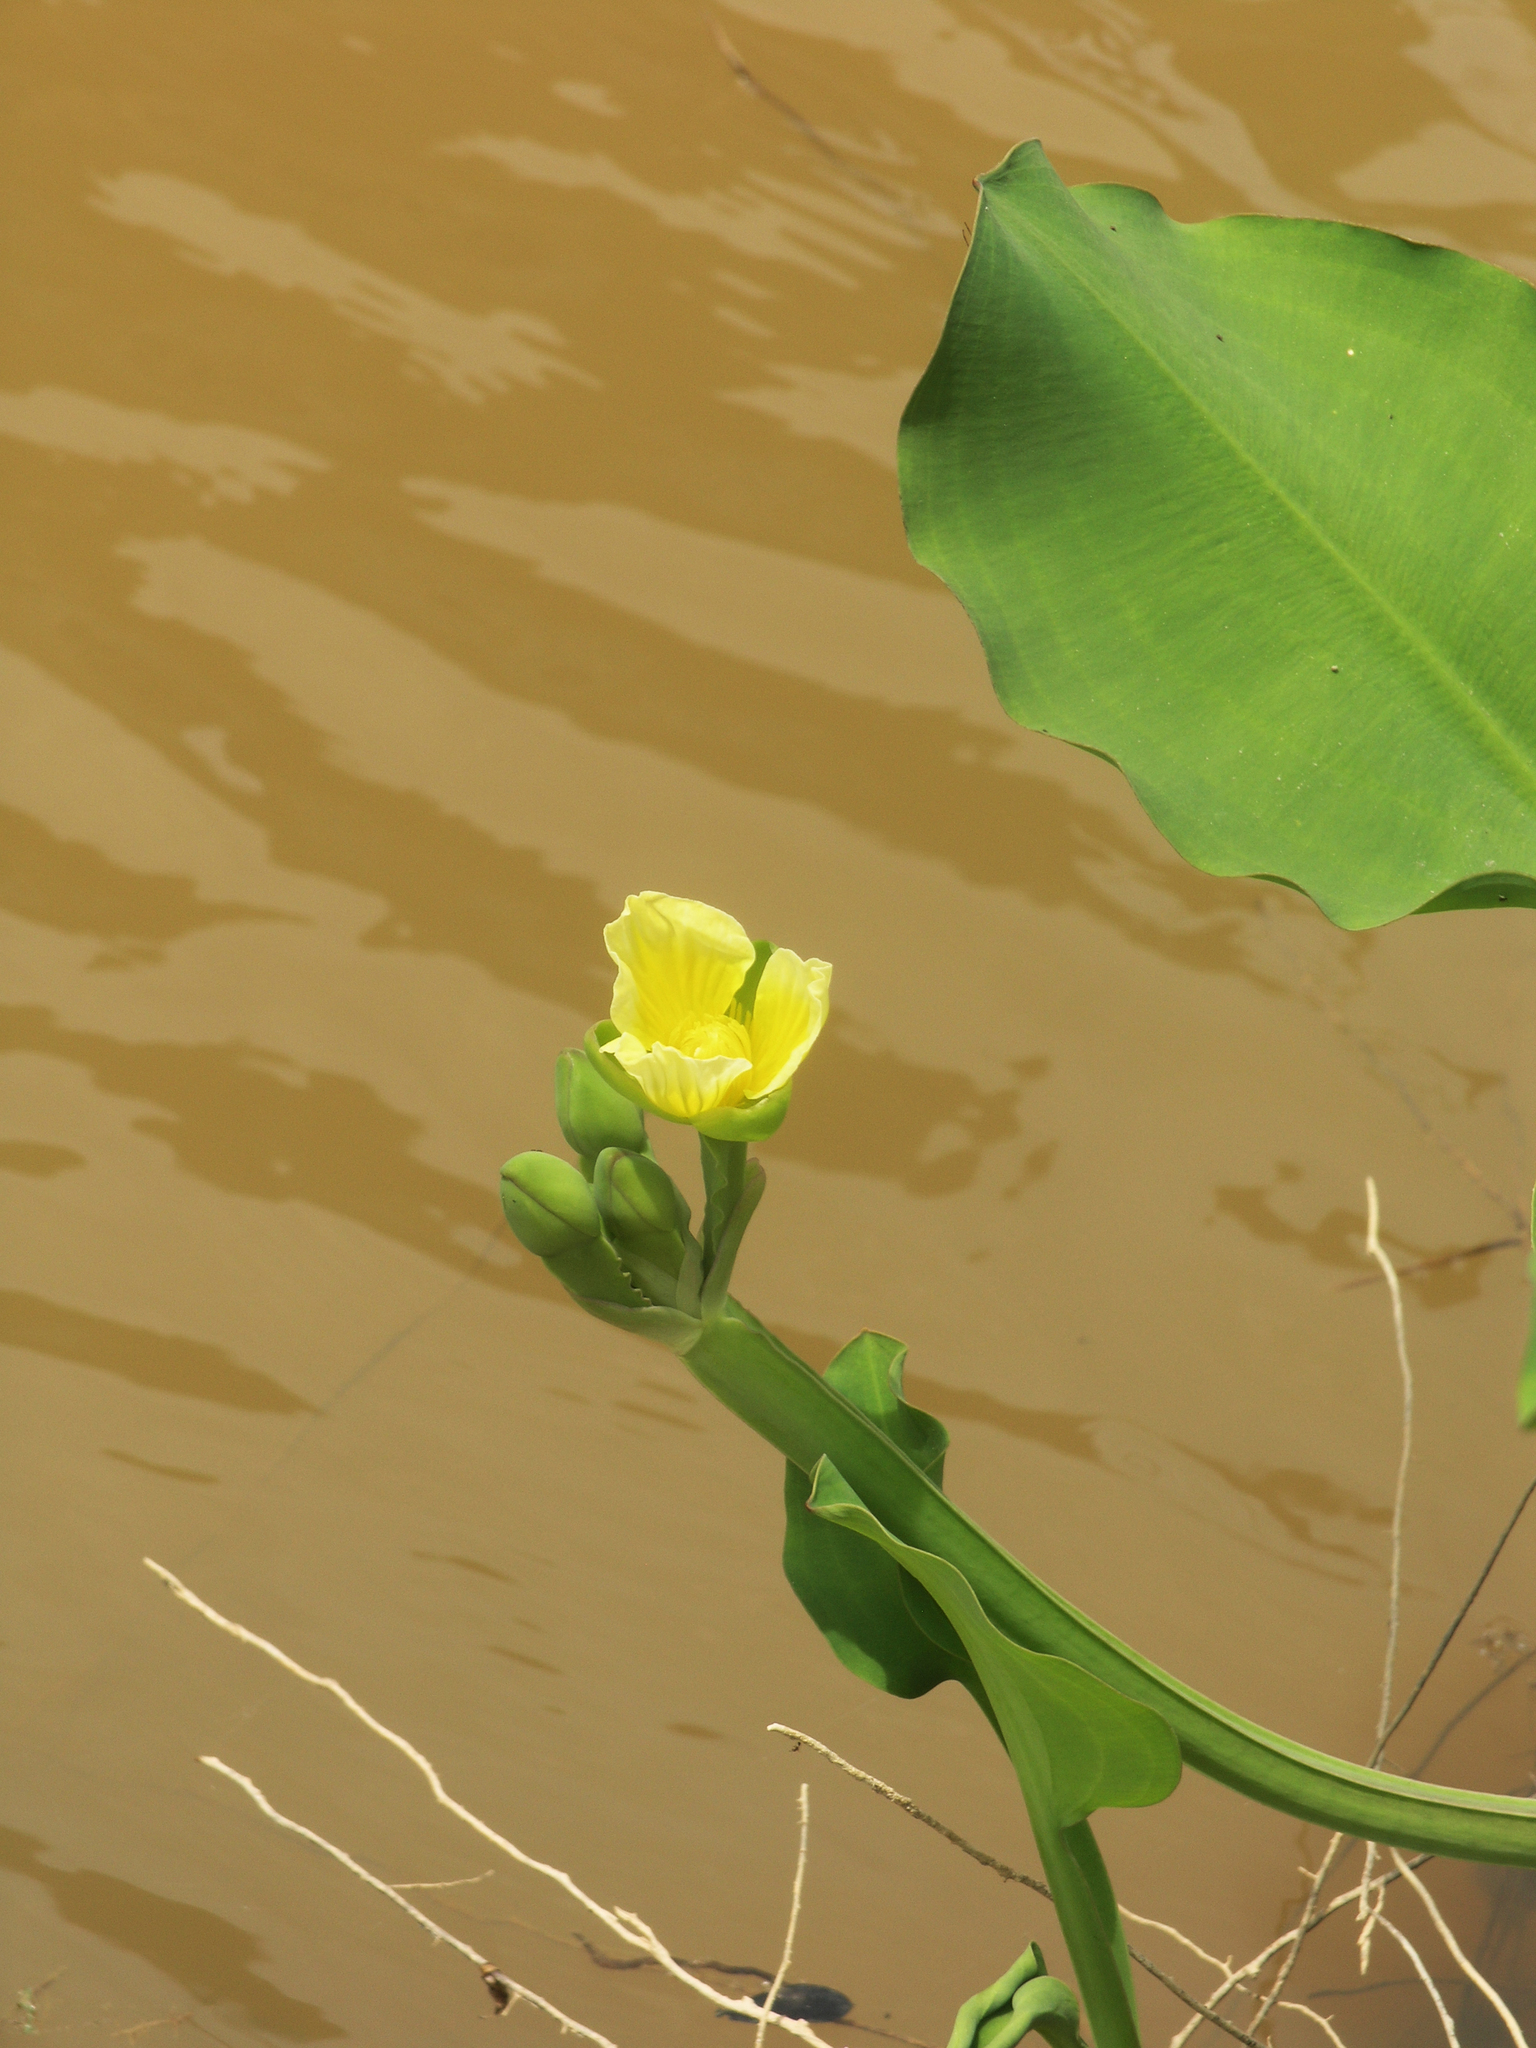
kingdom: Plantae
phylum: Tracheophyta
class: Liliopsida
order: Alismatales
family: Alismataceae
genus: Limnocharis
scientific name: Limnocharis flava
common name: Sawah-flower-rush
